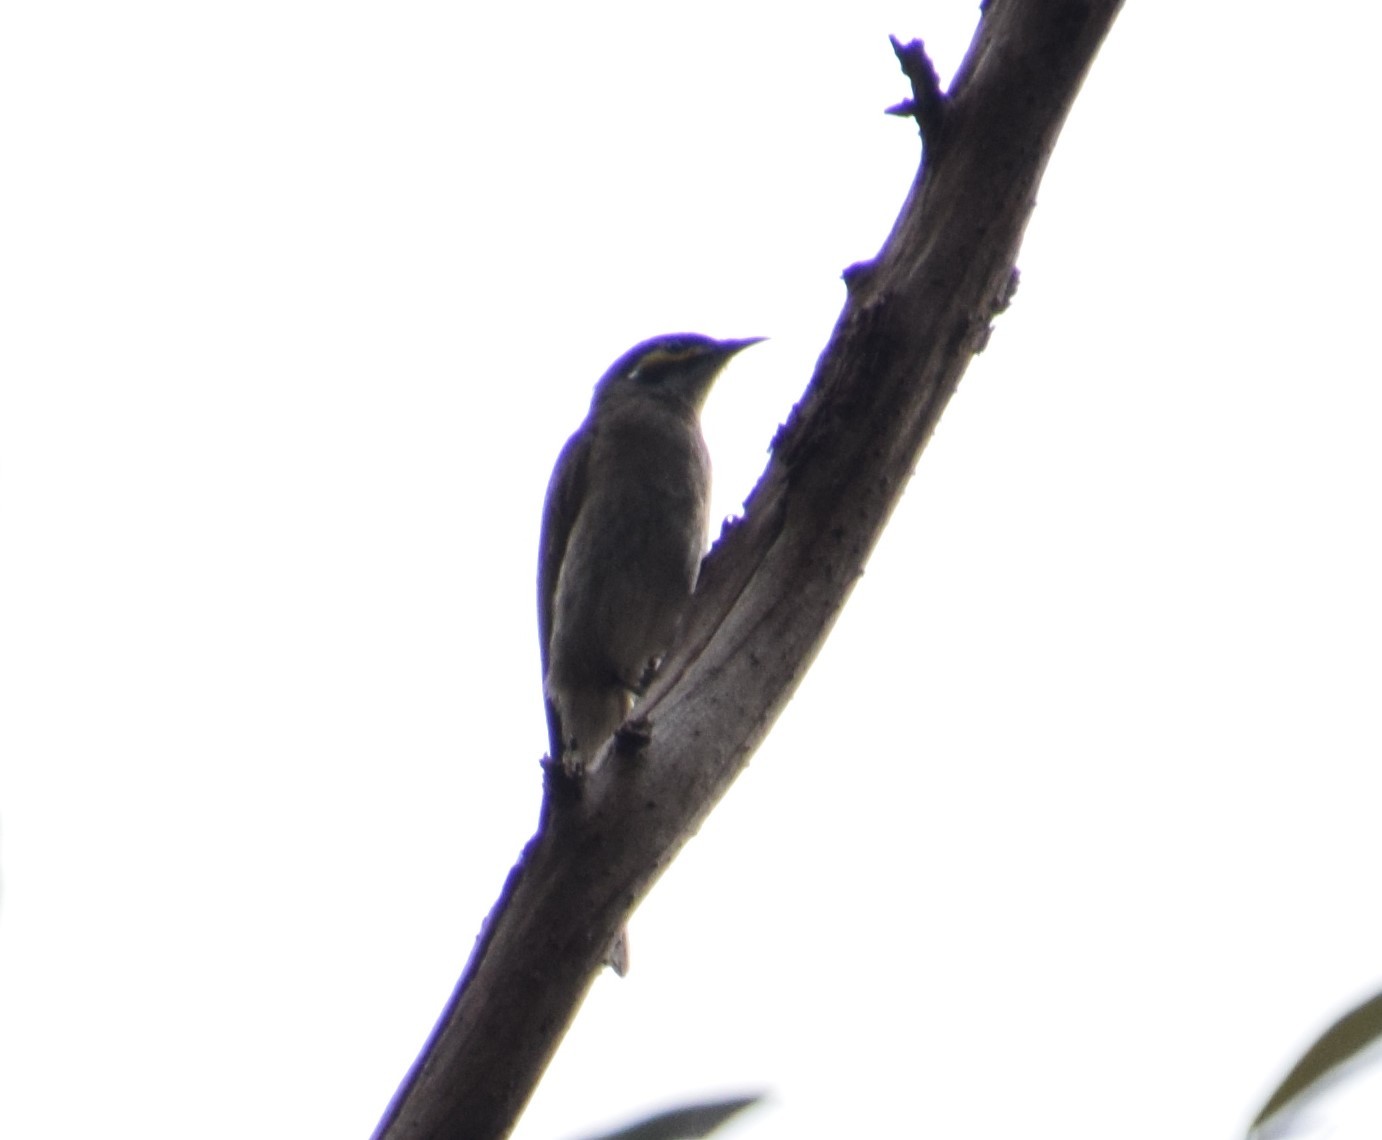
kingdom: Animalia
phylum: Chordata
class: Aves
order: Passeriformes
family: Meliphagidae
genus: Caligavis
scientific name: Caligavis chrysops
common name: Yellow-faced honeyeater
